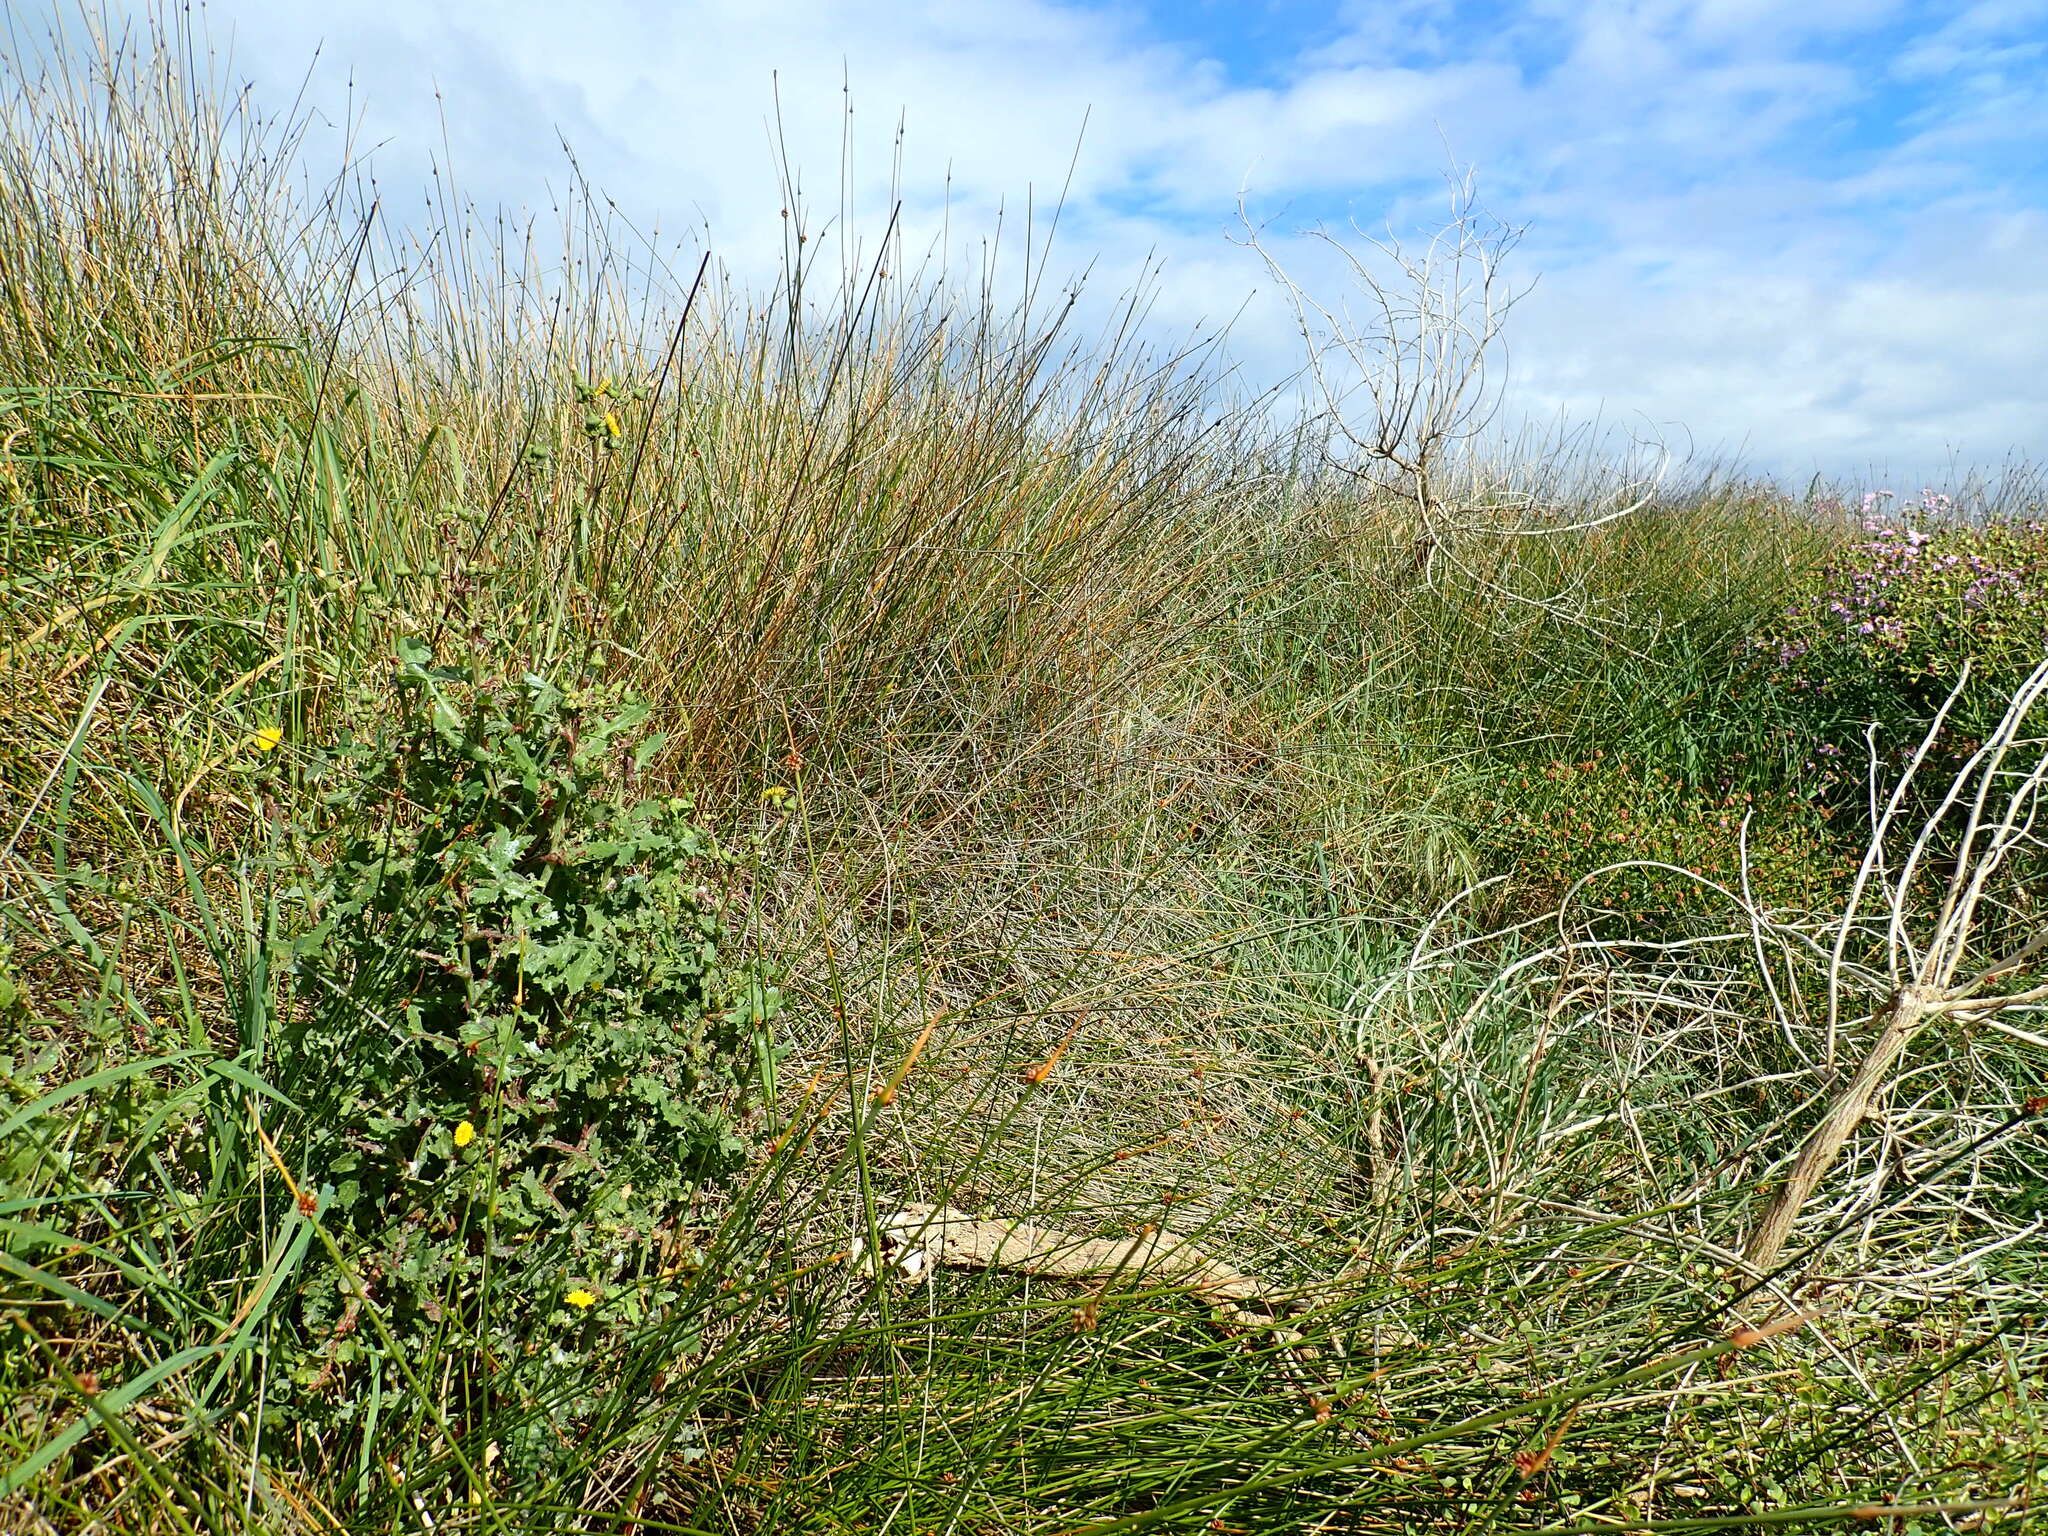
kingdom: Plantae
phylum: Tracheophyta
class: Magnoliopsida
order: Asterales
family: Asteraceae
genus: Sonchus
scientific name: Sonchus oleraceus
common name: Common sowthistle
